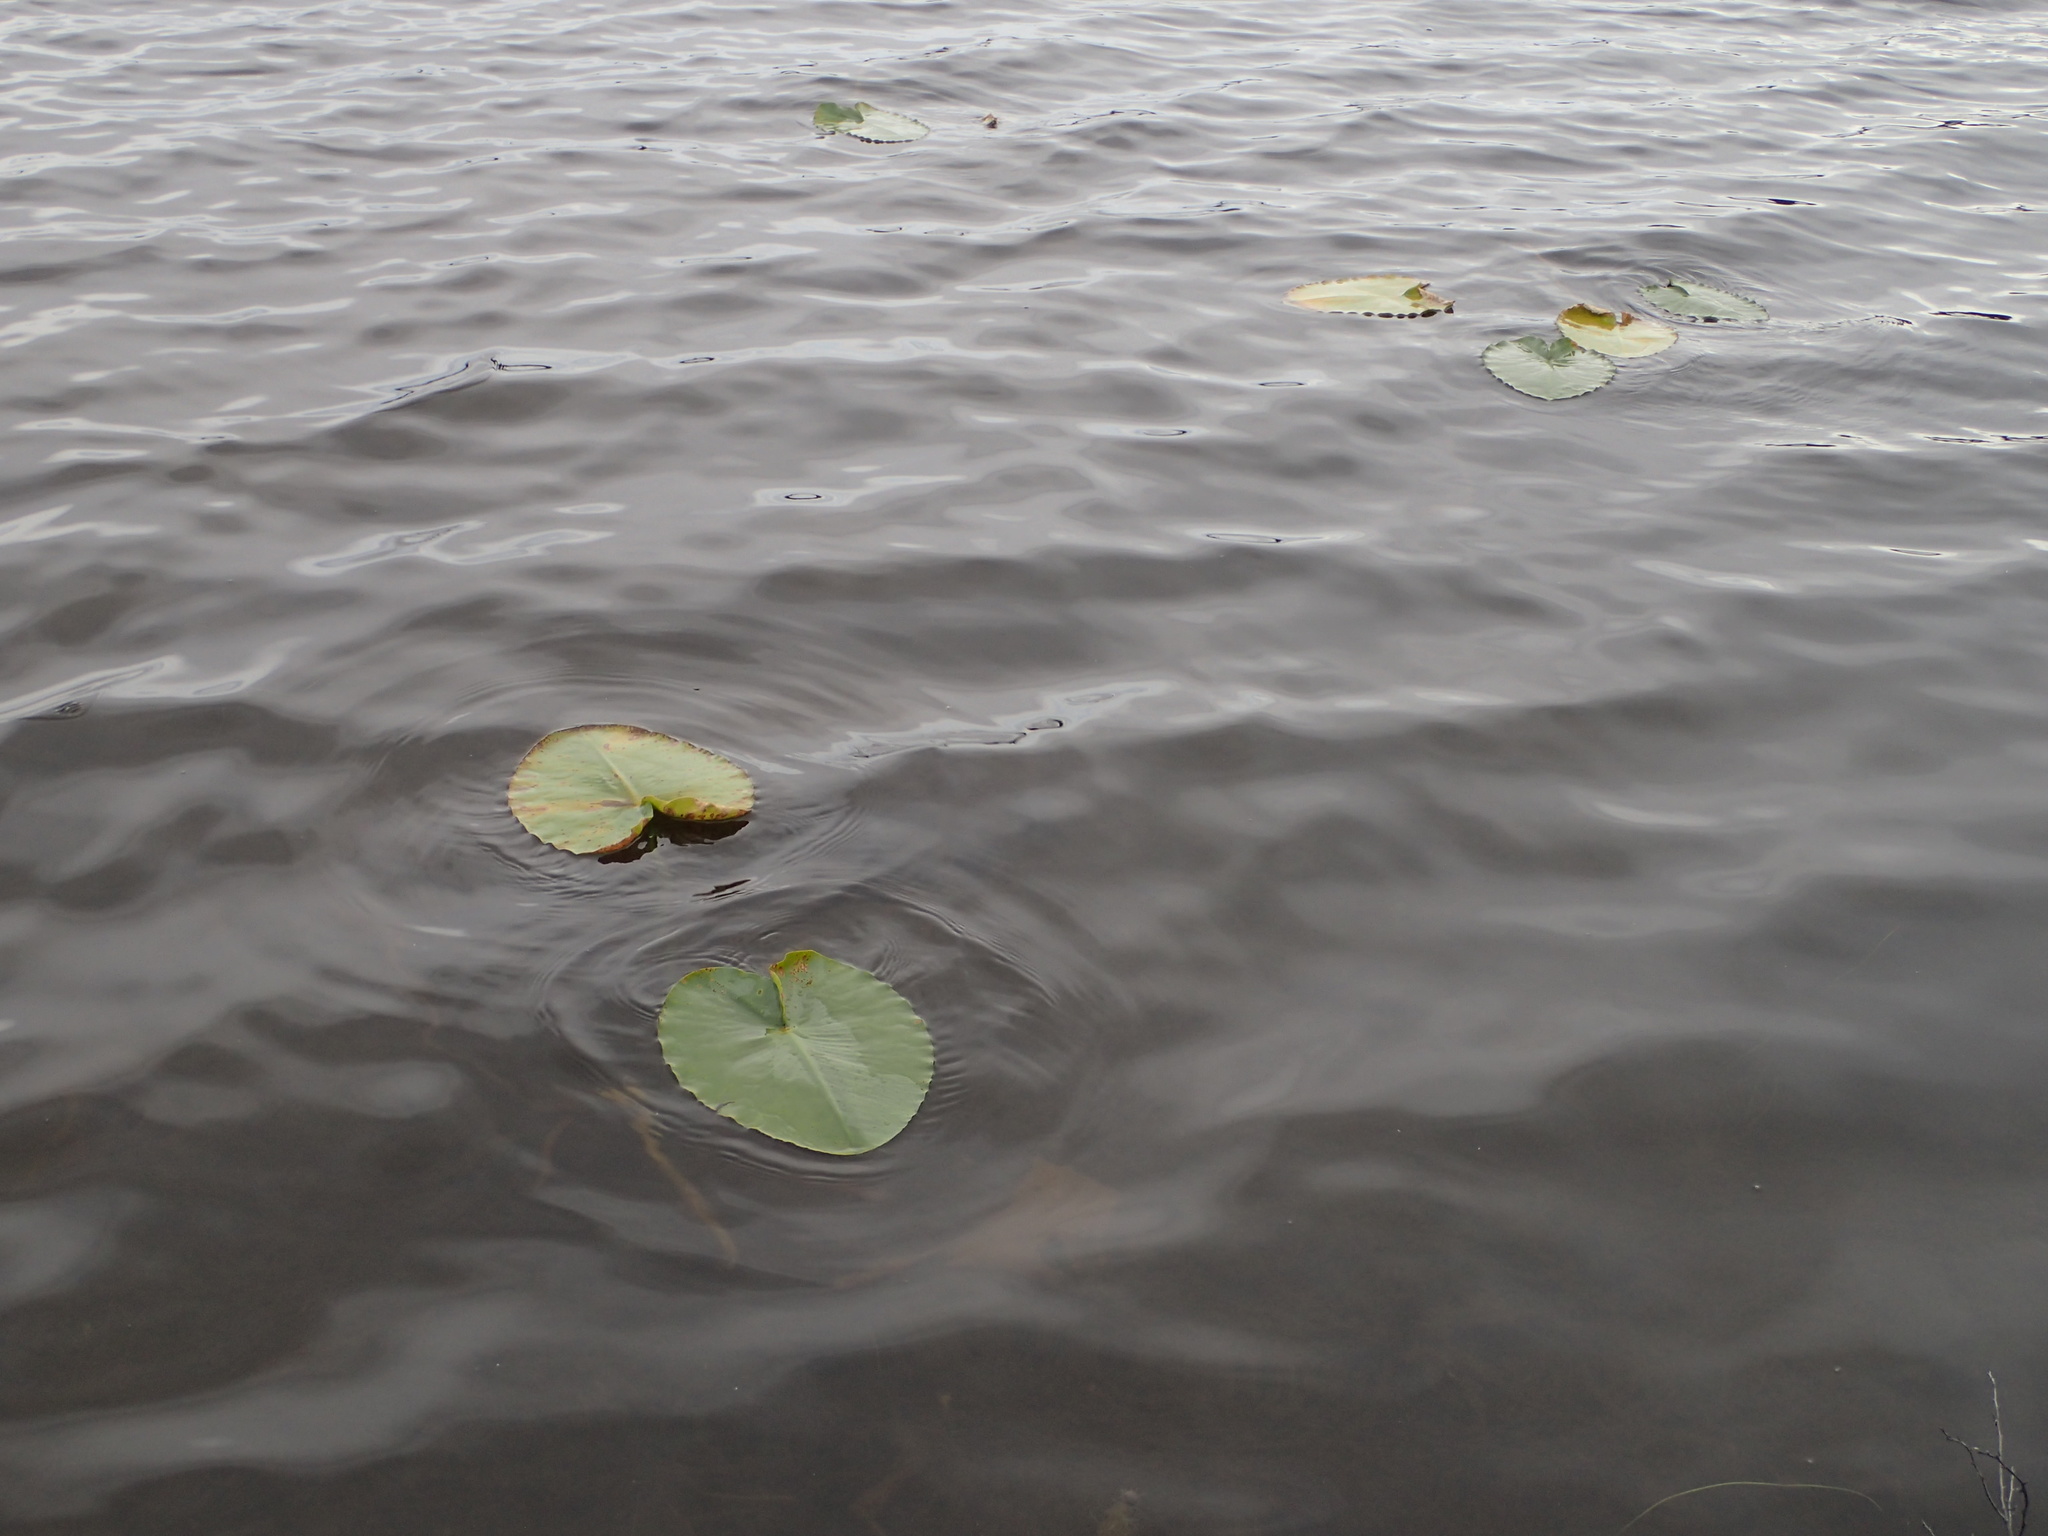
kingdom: Plantae
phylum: Tracheophyta
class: Magnoliopsida
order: Nymphaeales
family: Nymphaeaceae
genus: Nuphar
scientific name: Nuphar polysepala
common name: Rocky mountain cow-lily
